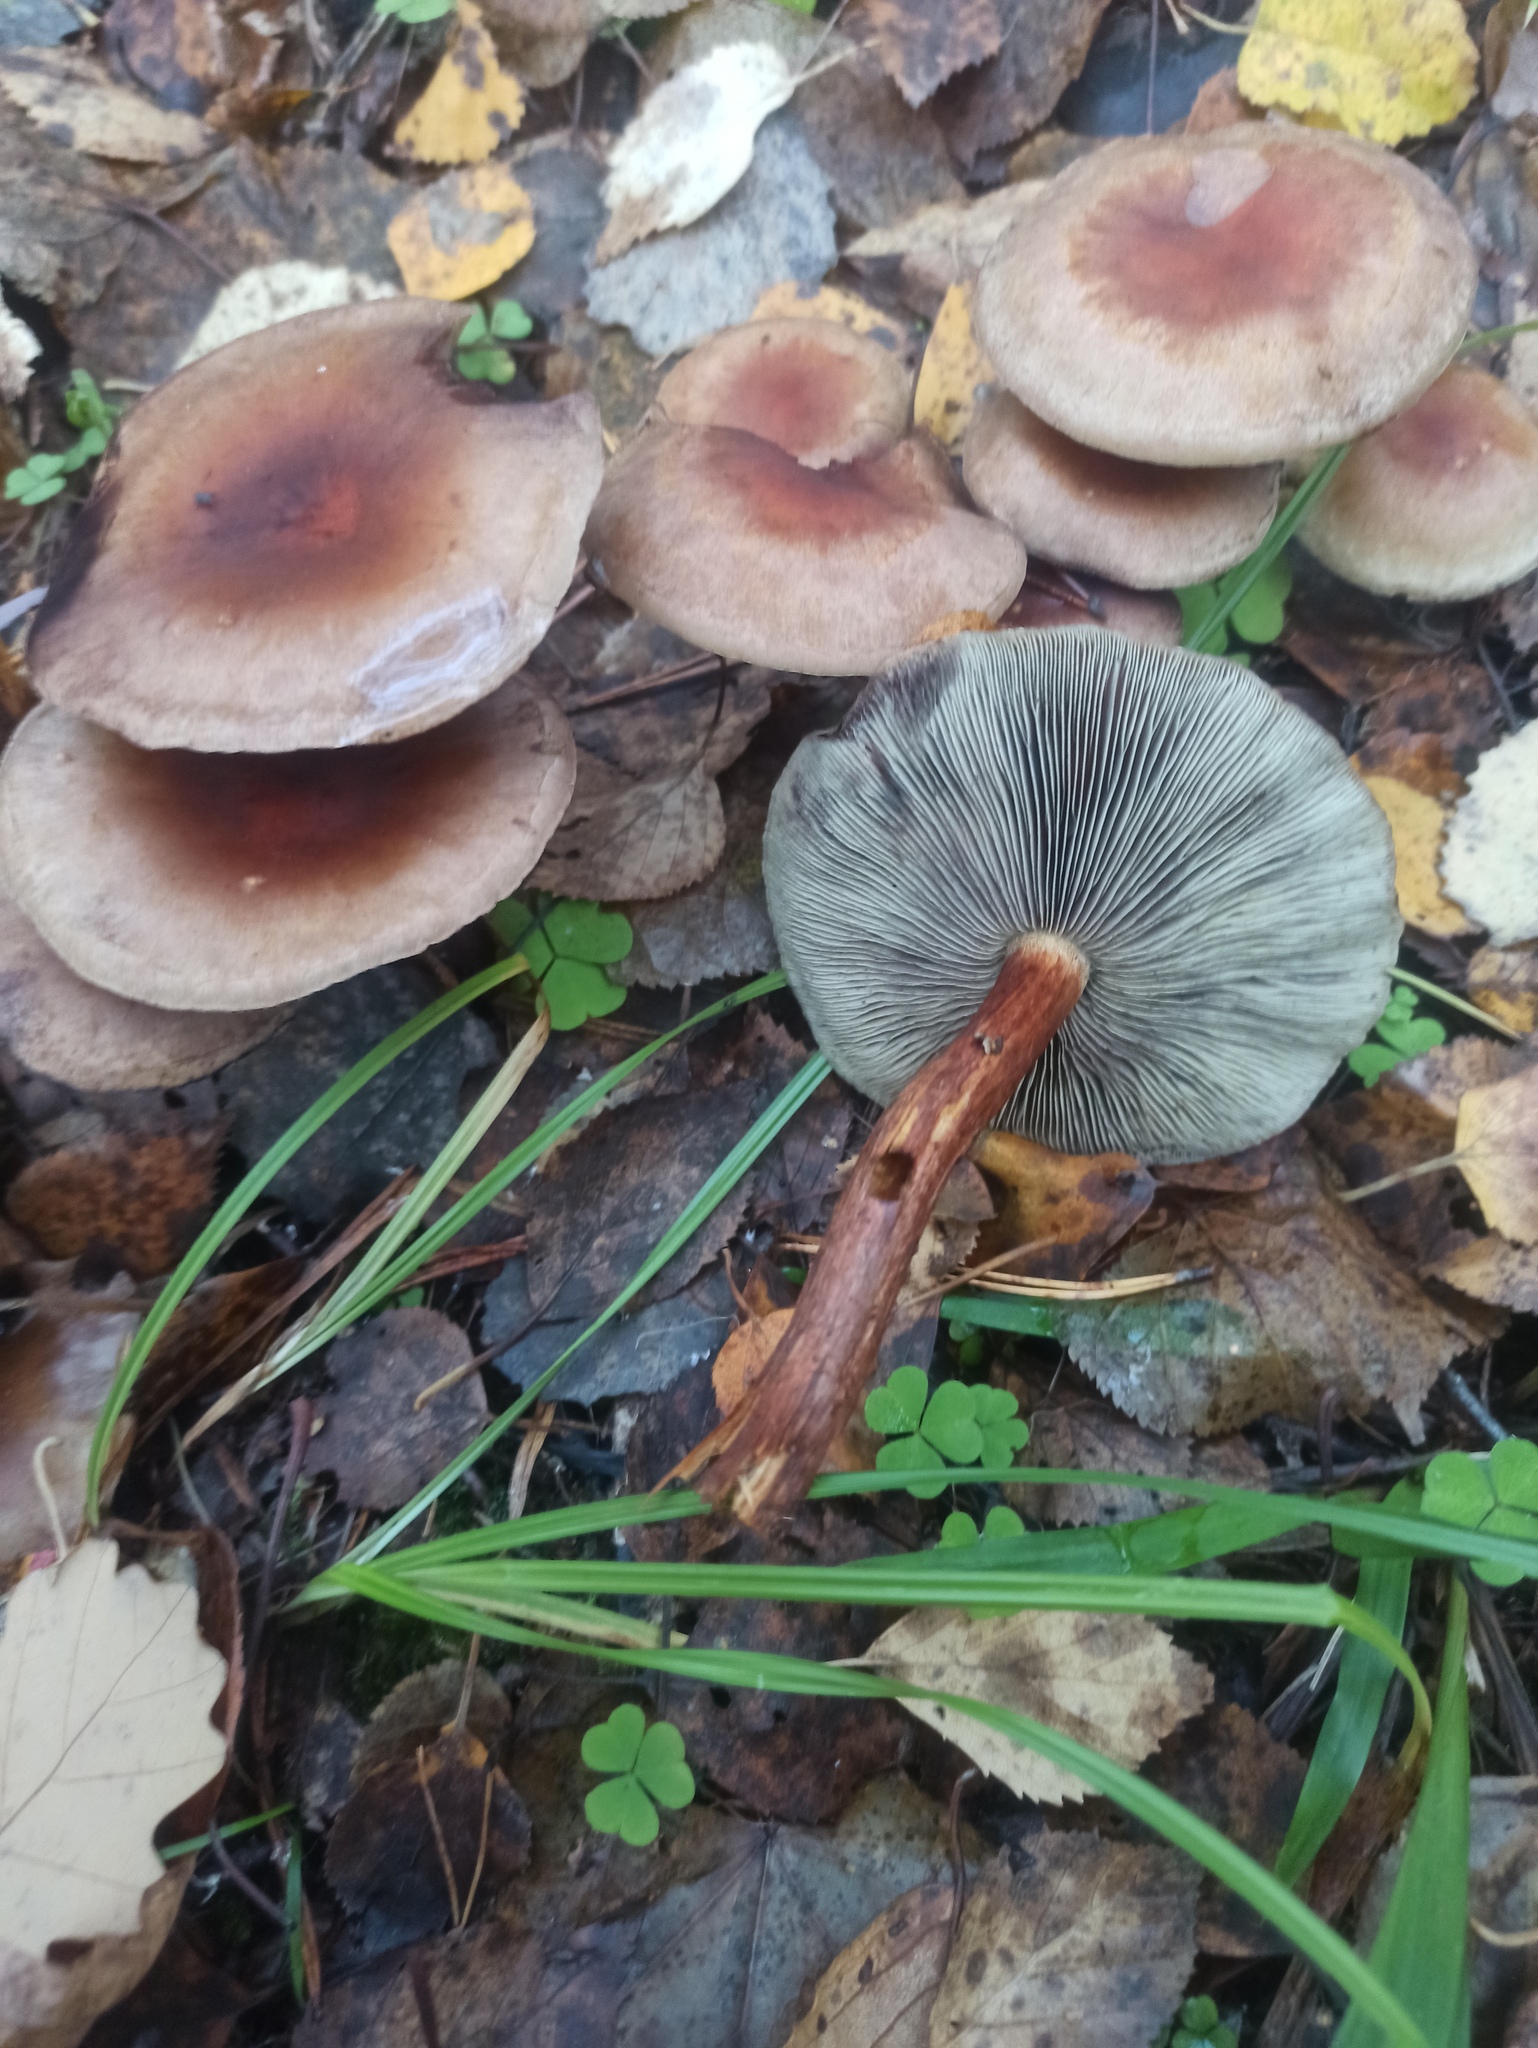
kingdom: Fungi
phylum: Basidiomycota
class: Agaricomycetes
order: Agaricales
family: Strophariaceae
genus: Hypholoma
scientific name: Hypholoma lateritium
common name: Brick caps
